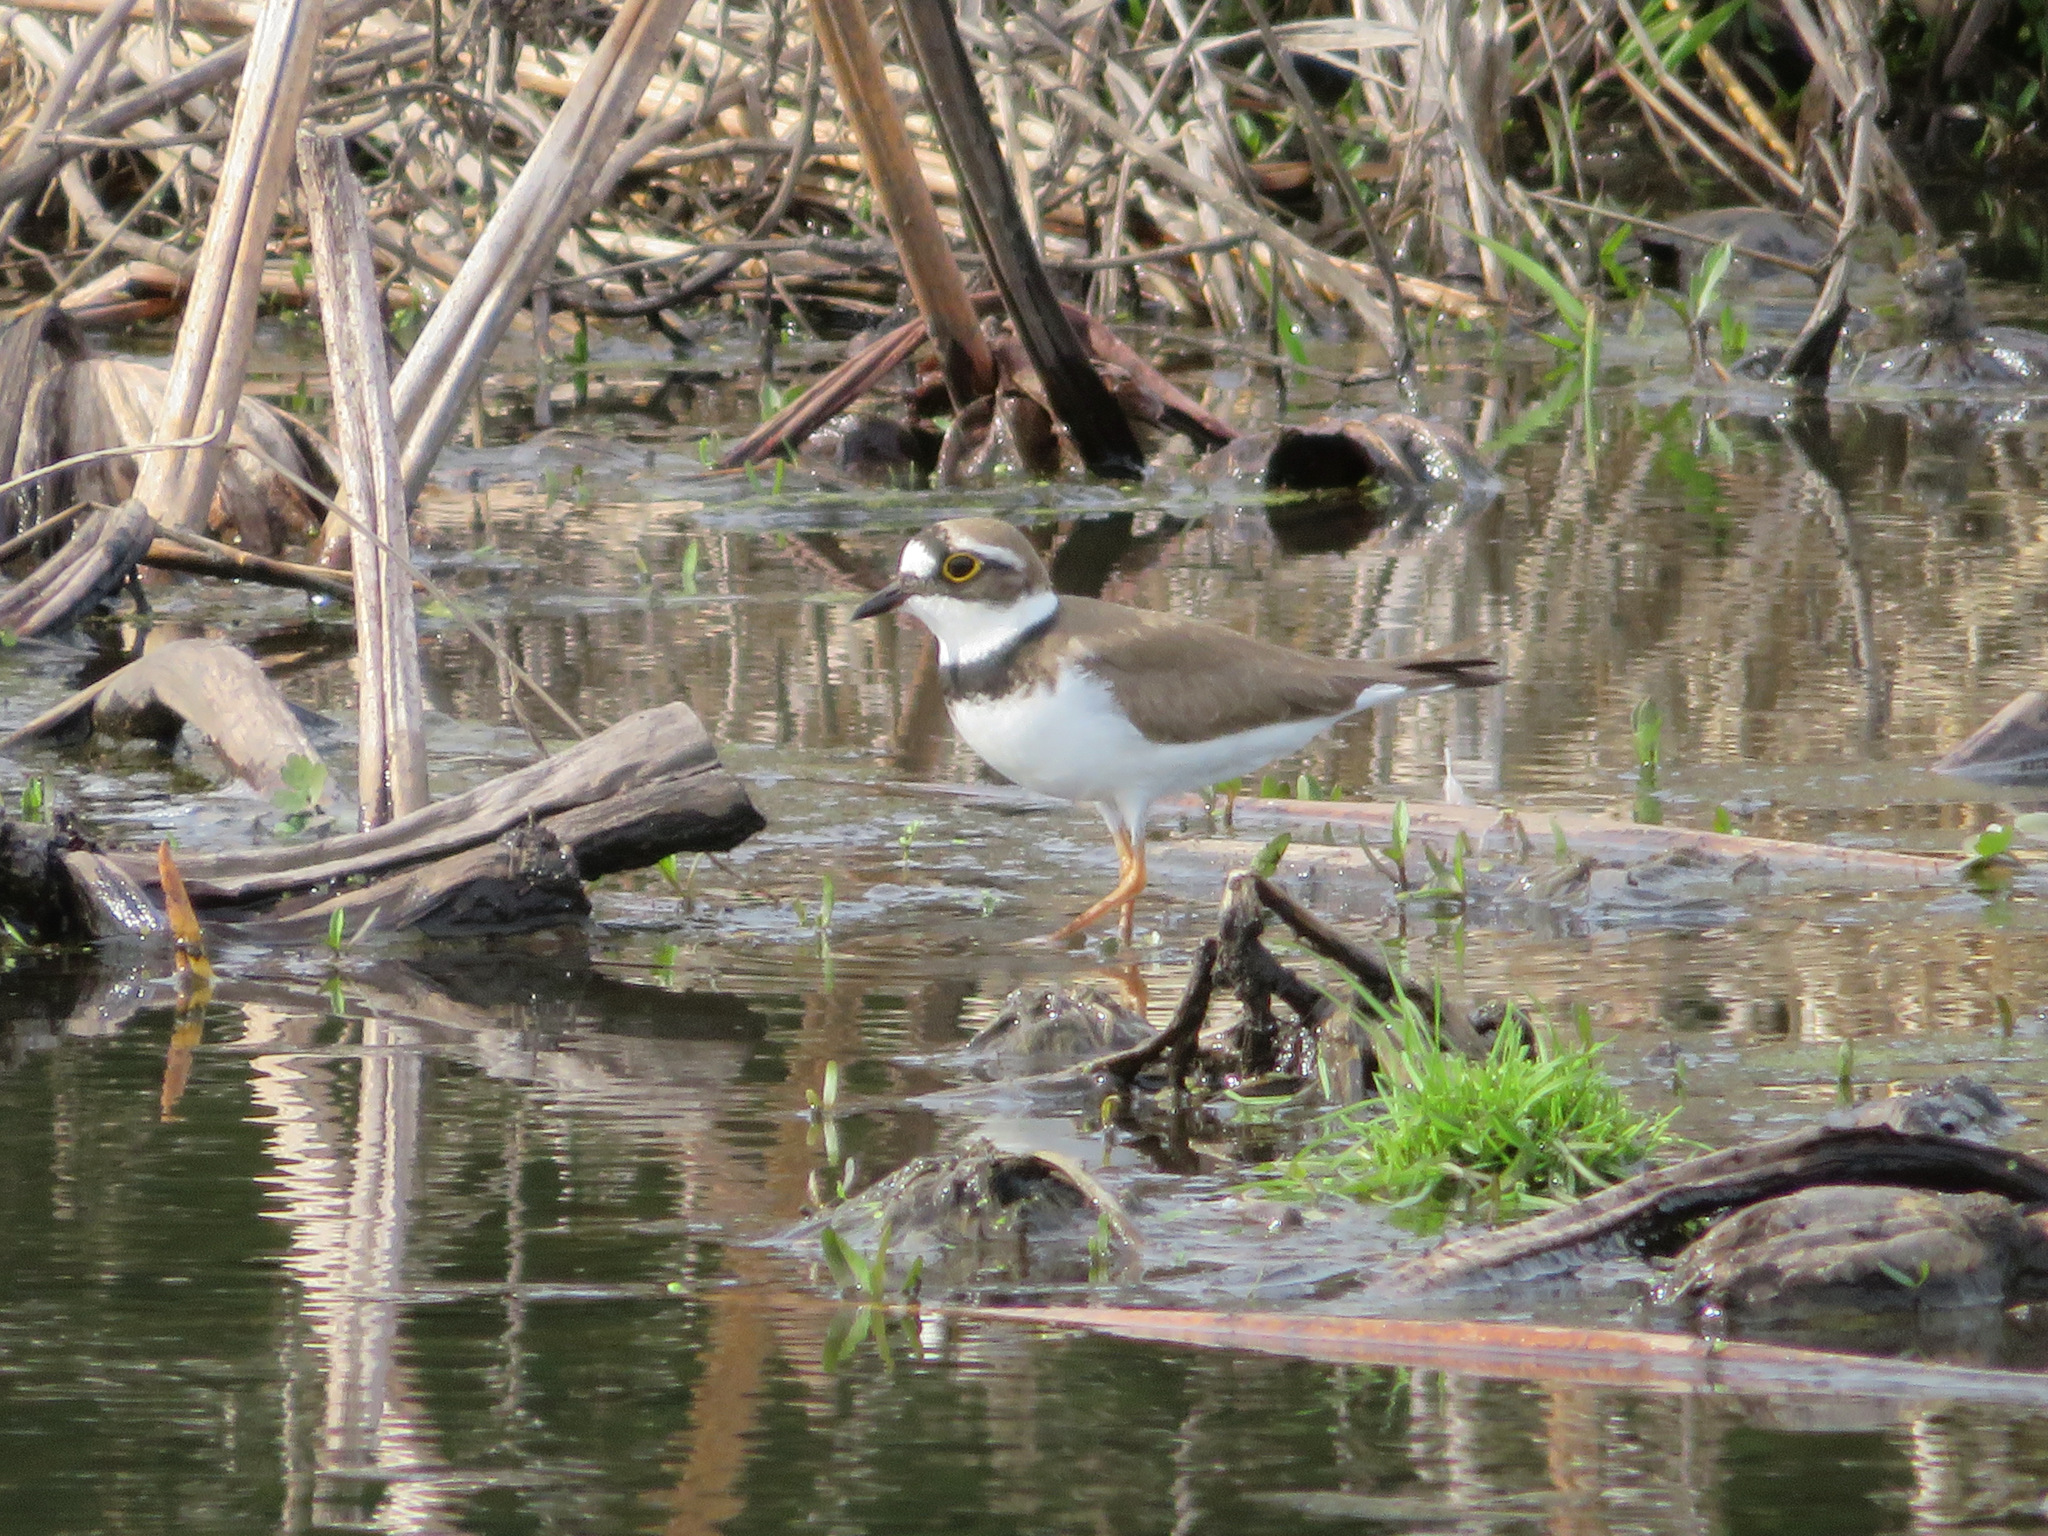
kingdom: Animalia
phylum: Chordata
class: Aves
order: Charadriiformes
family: Charadriidae
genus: Charadrius
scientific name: Charadrius dubius
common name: Little ringed plover
